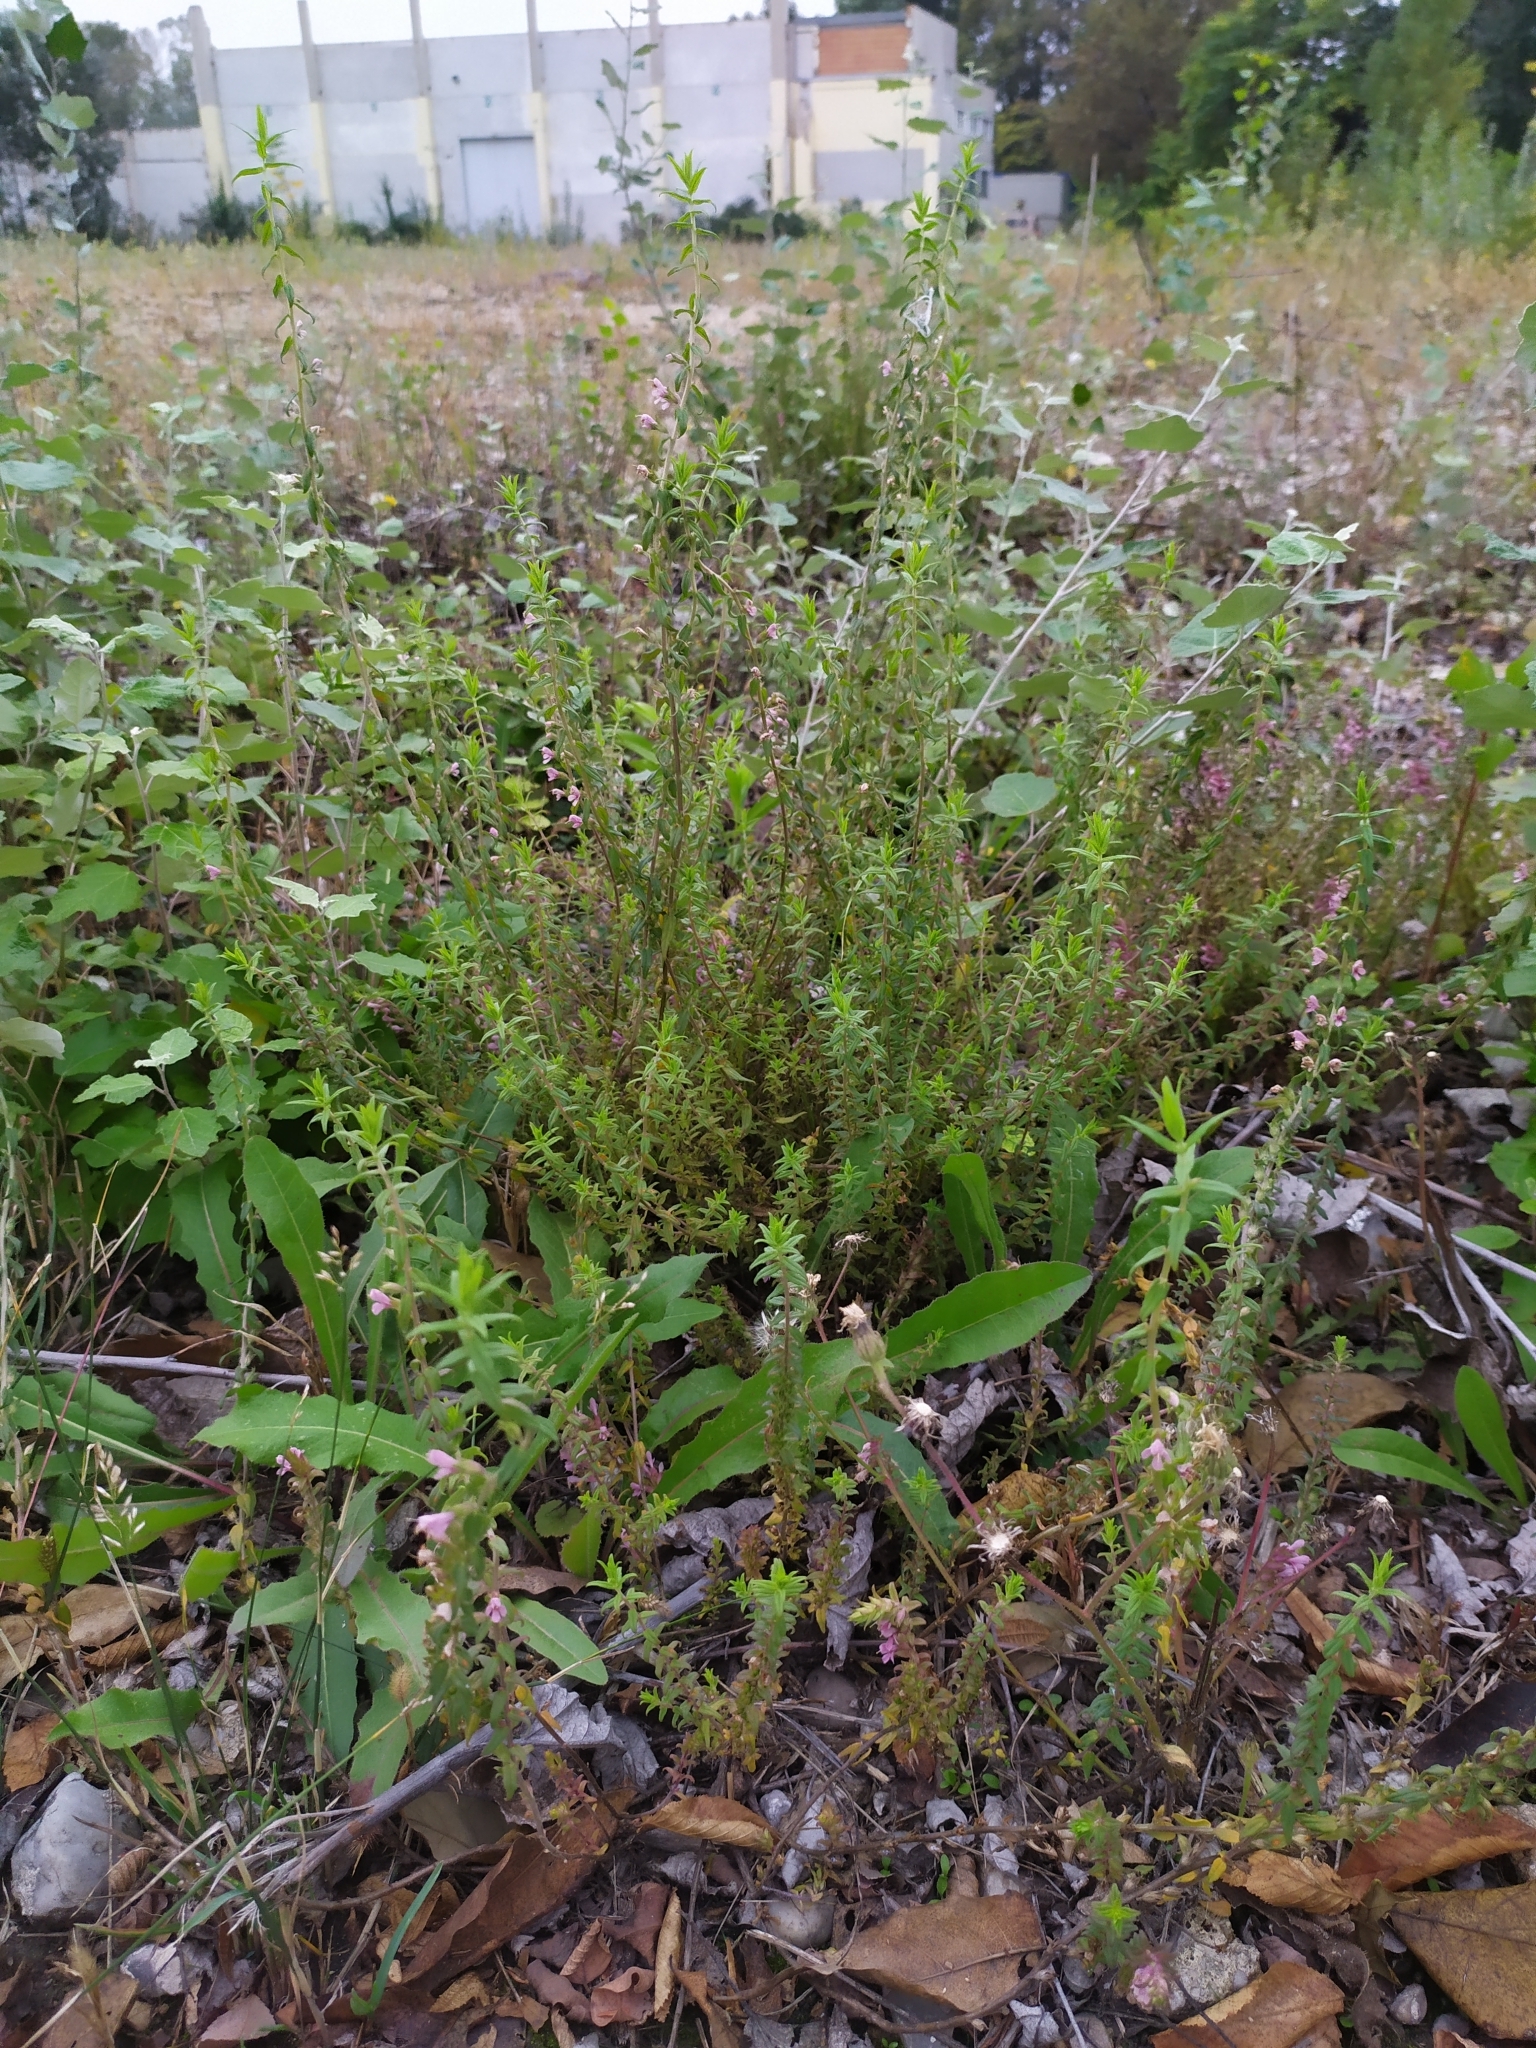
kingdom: Plantae
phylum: Tracheophyta
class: Magnoliopsida
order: Lamiales
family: Orobanchaceae
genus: Odontites
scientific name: Odontites vulgaris
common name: Broomrape
